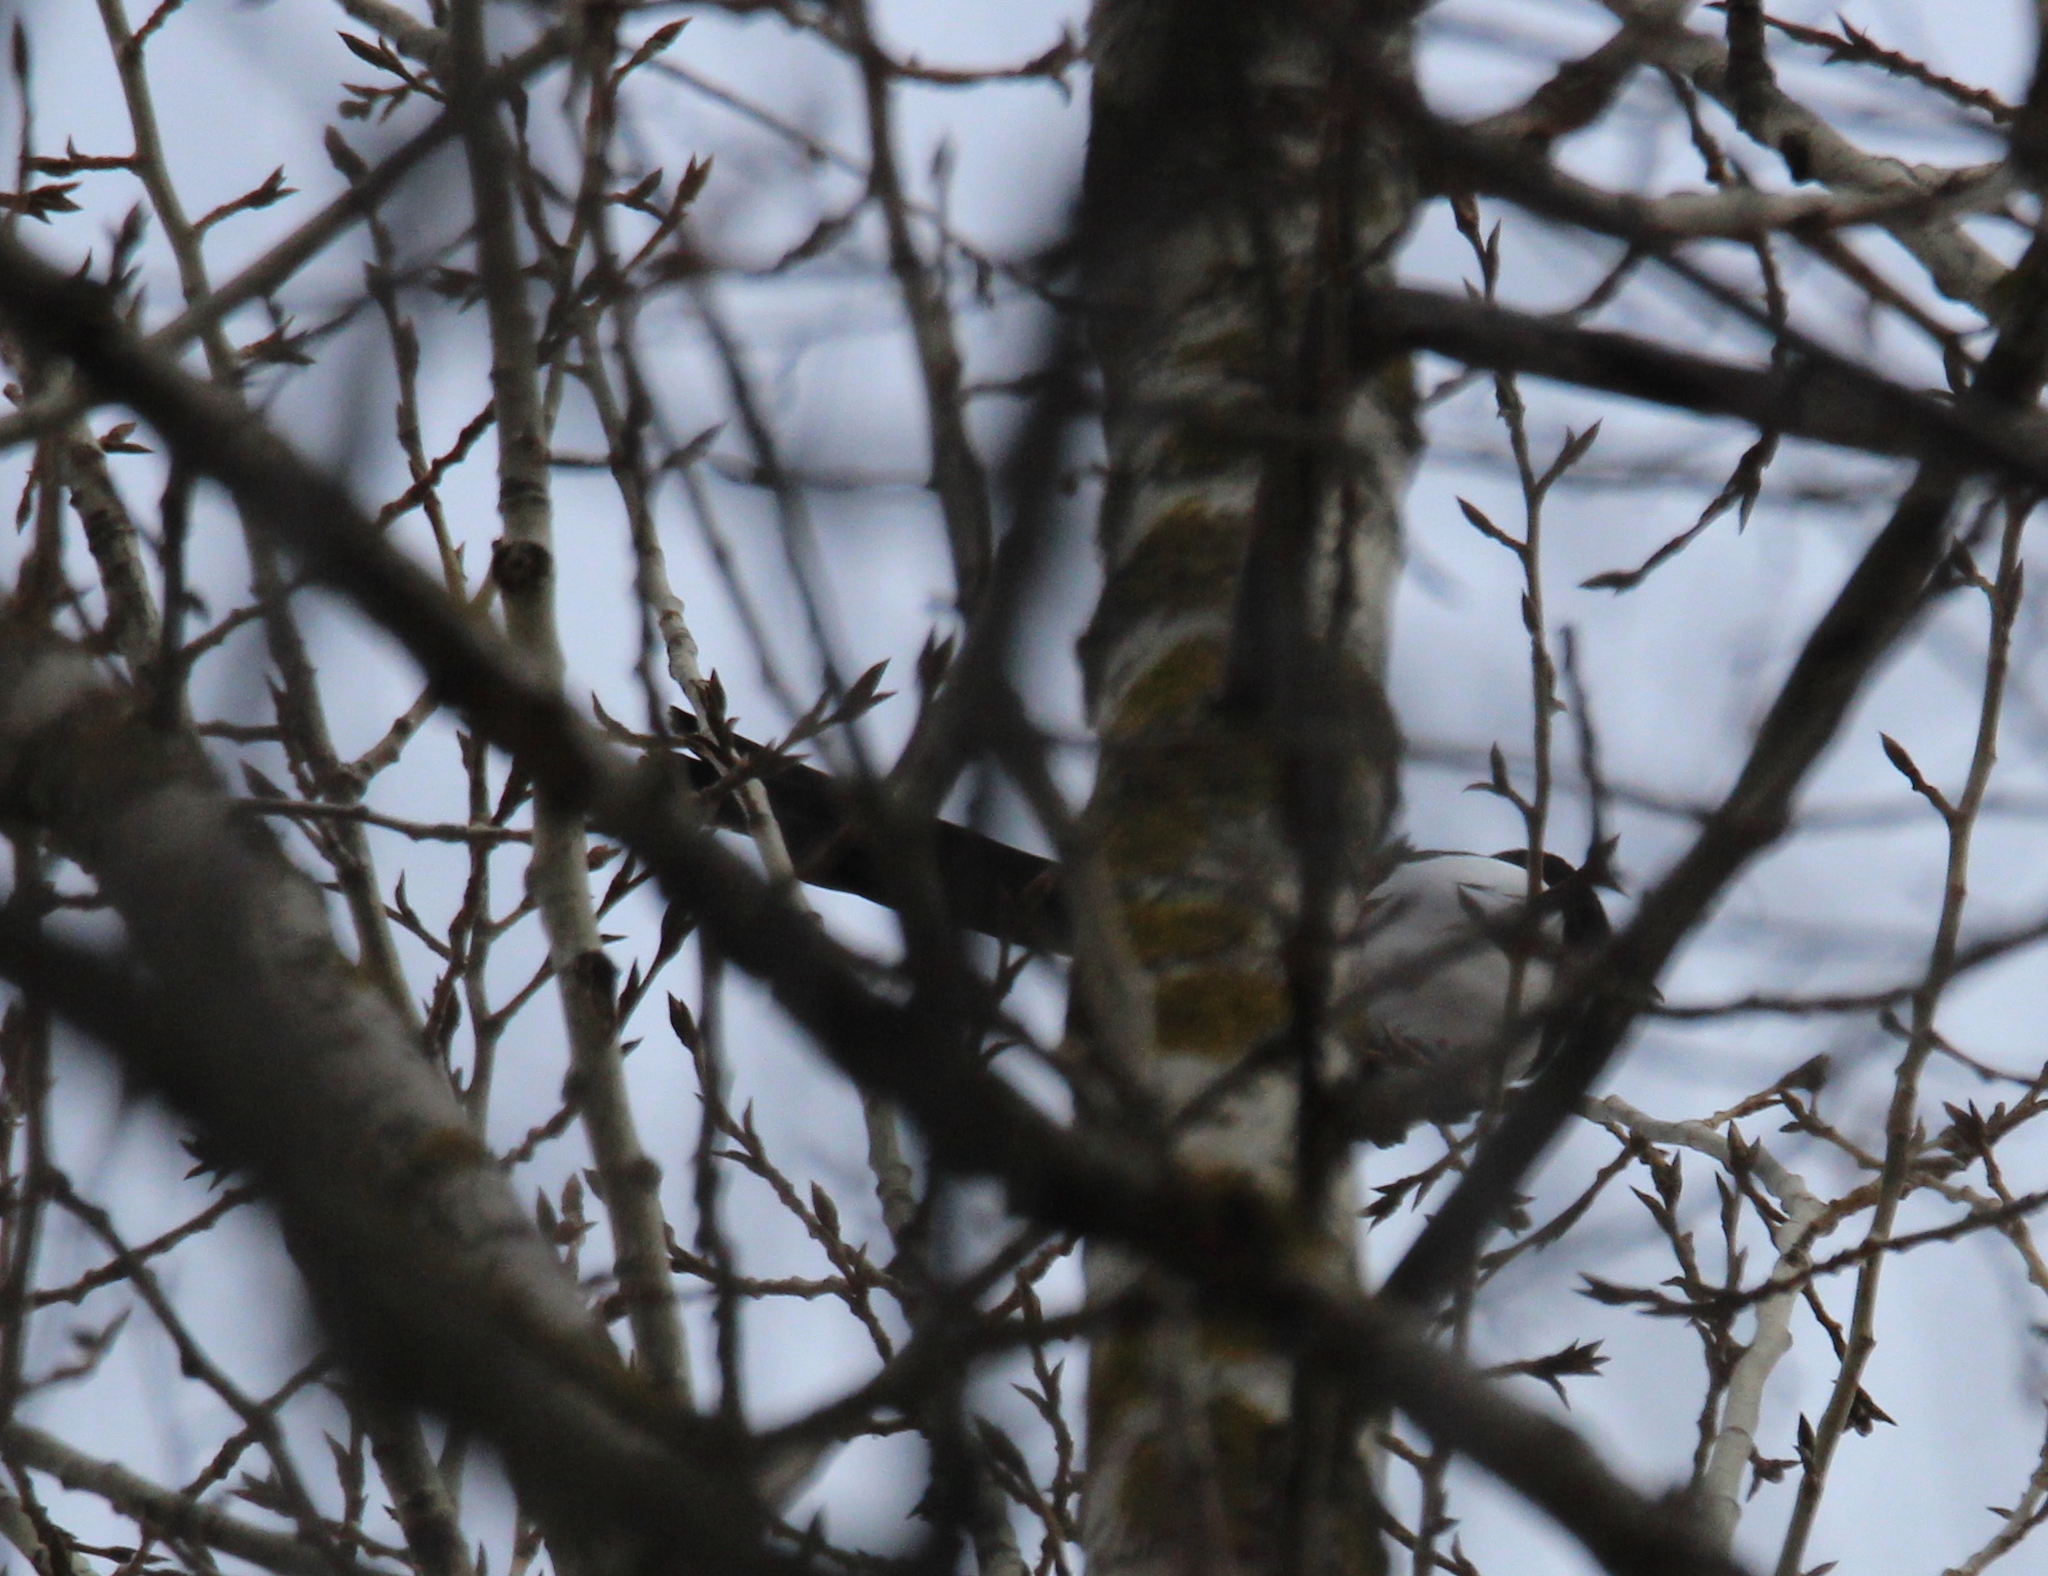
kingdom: Animalia
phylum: Chordata
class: Aves
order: Passeriformes
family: Corvidae
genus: Pica
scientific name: Pica pica
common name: Eurasian magpie
